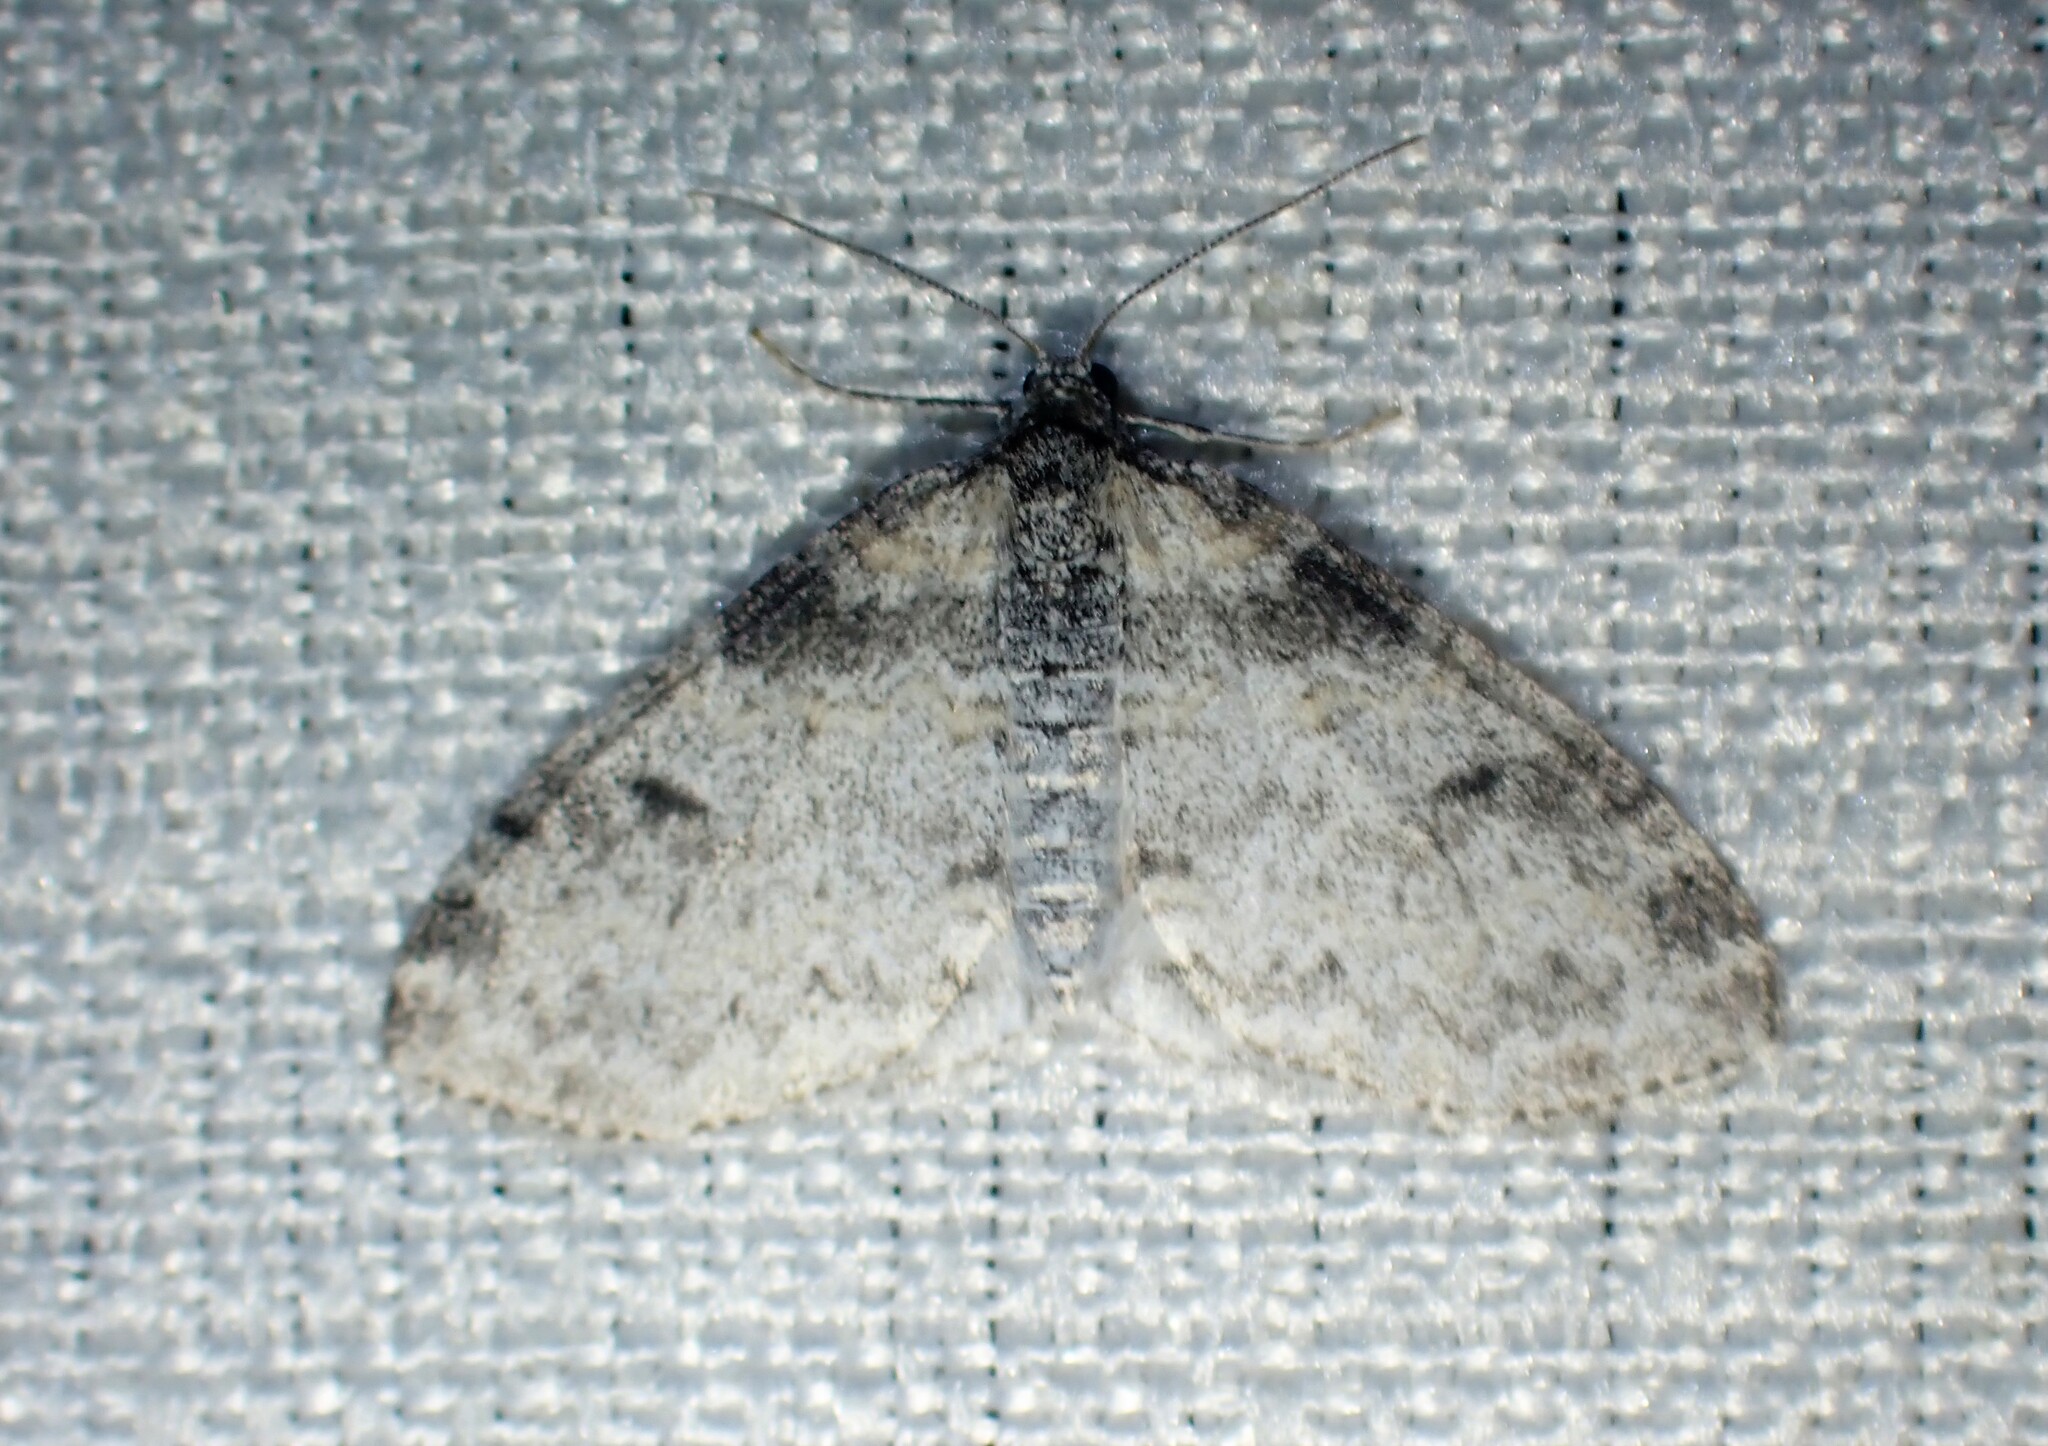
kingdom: Animalia
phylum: Arthropoda
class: Insecta
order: Lepidoptera
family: Geometridae
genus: Lobophora
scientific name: Lobophora nivigerata
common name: Powdered bigwing
